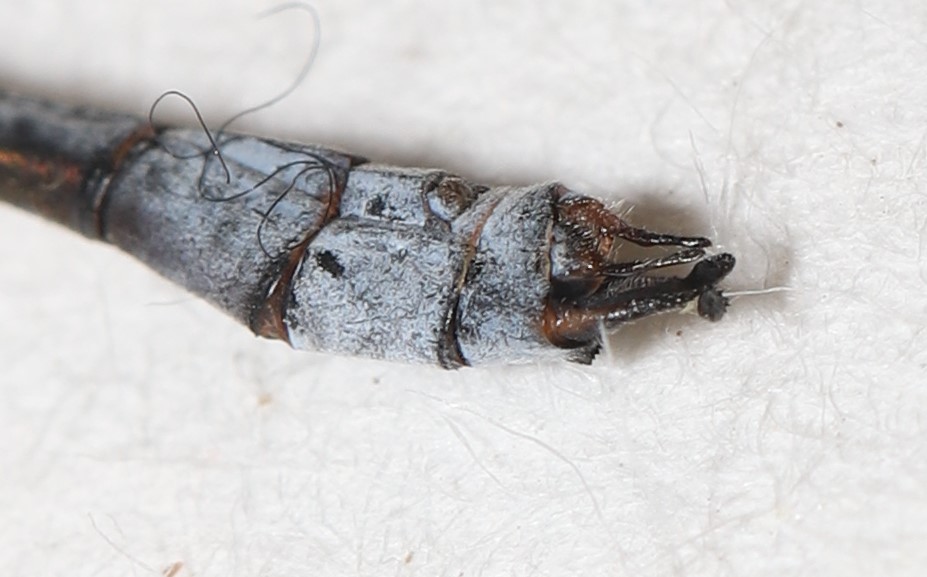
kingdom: Animalia
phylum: Arthropoda
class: Insecta
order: Odonata
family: Lestidae
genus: Lestes
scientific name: Lestes forcipatus
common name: Sweetflag spreadwing
